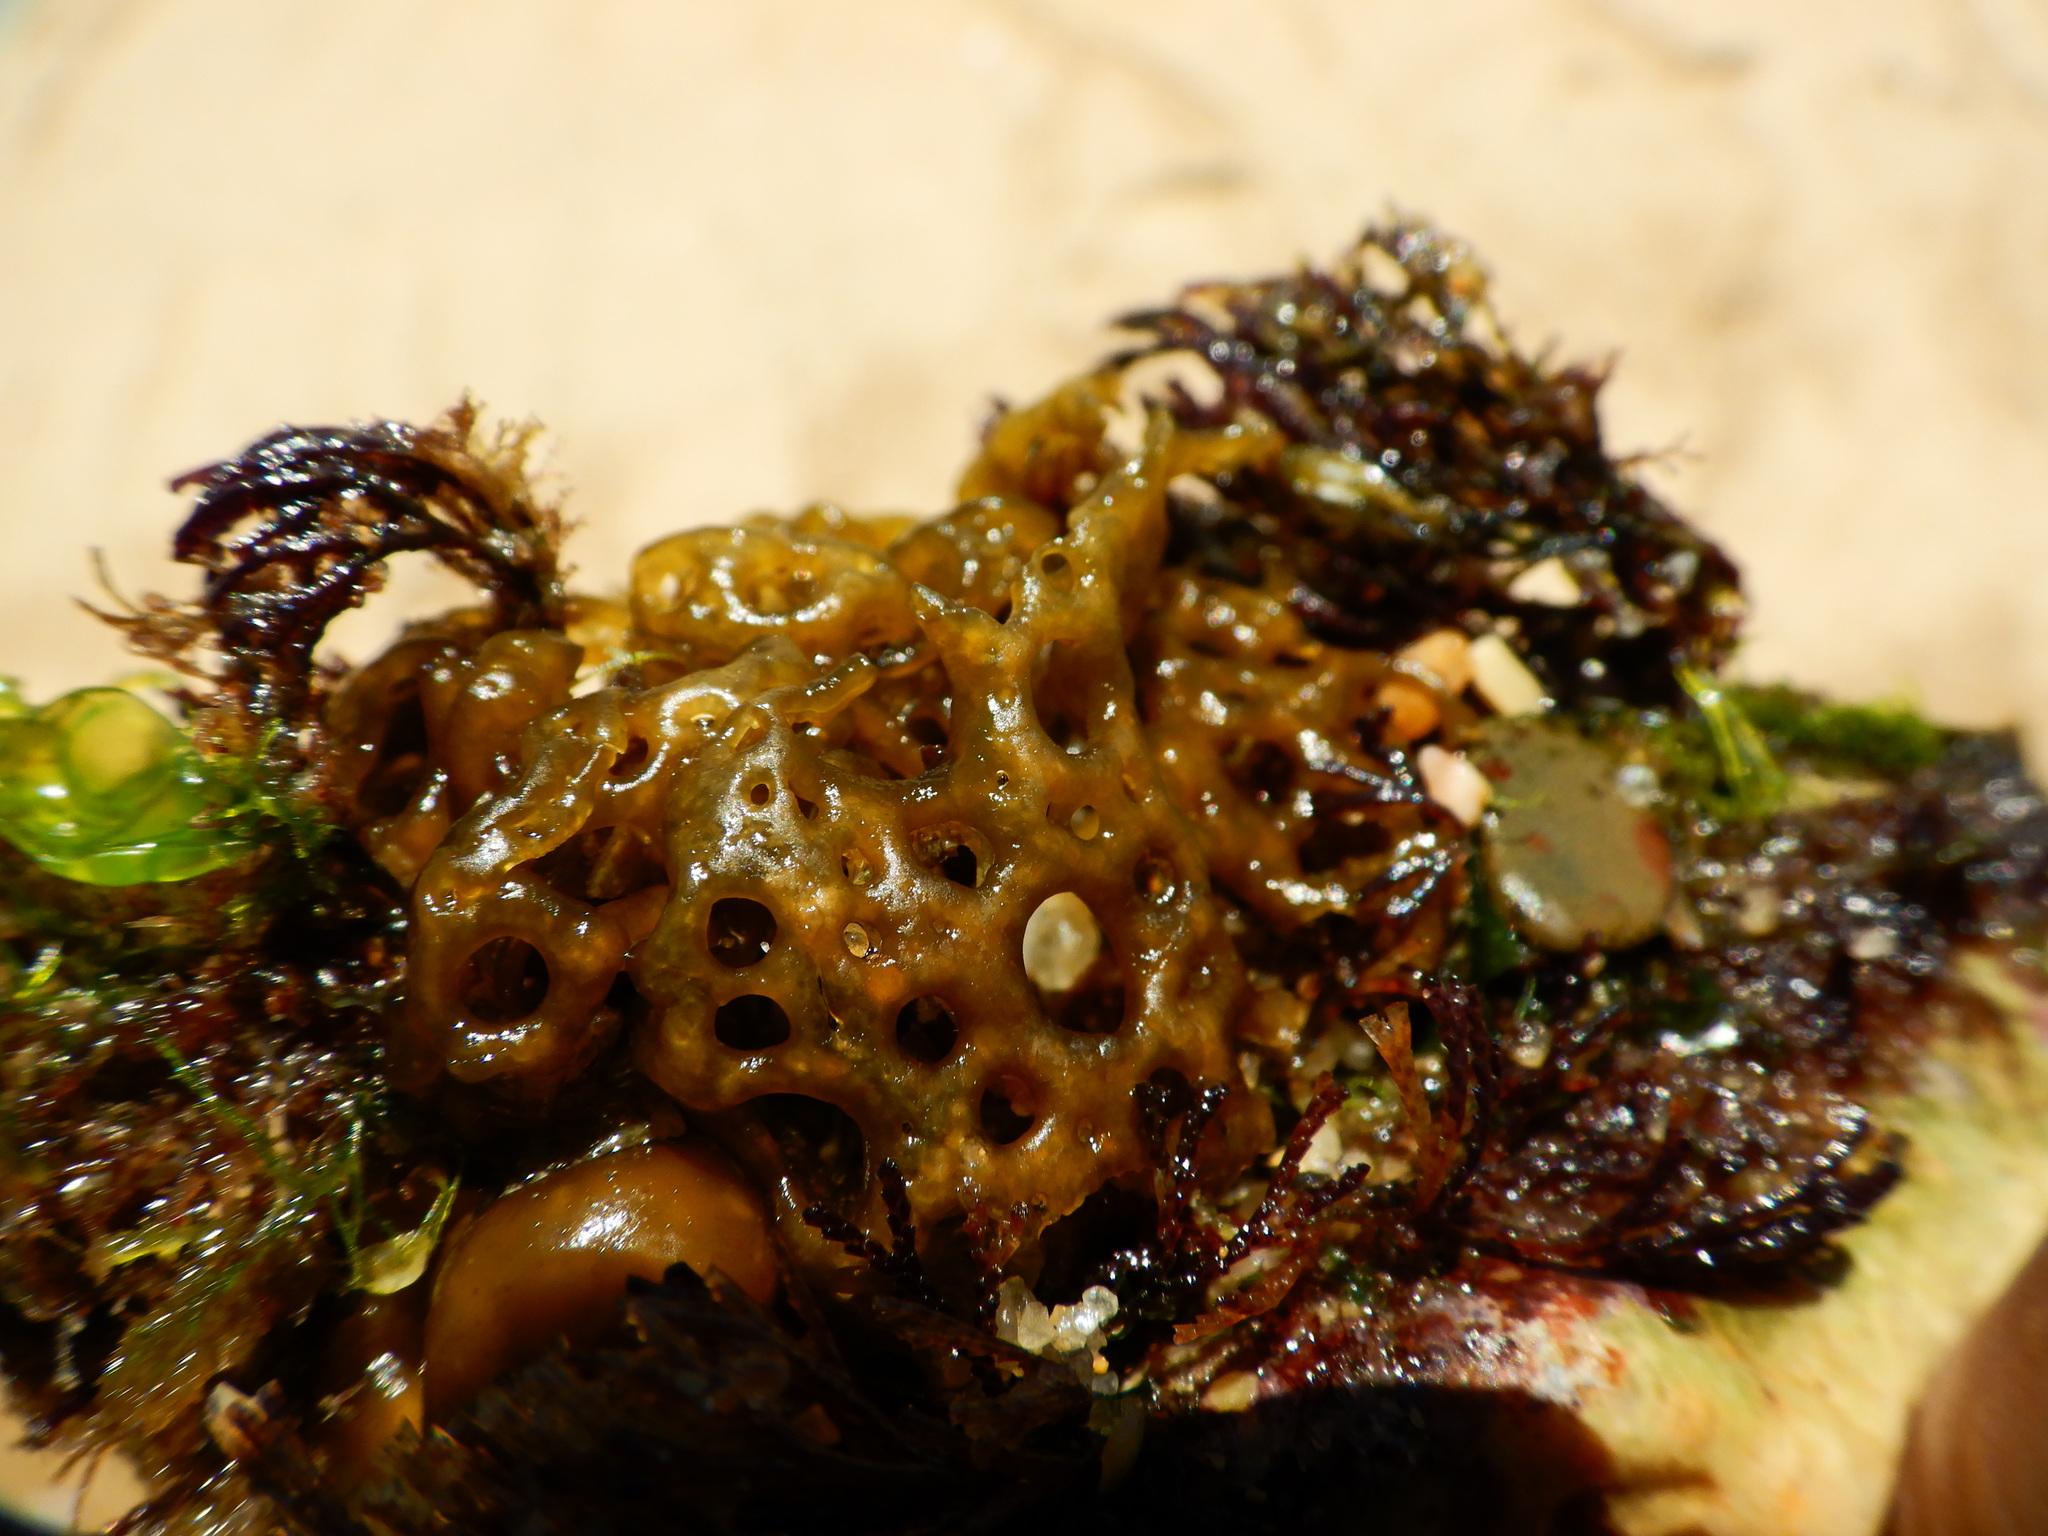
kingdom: Chromista
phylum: Ochrophyta
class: Phaeophyceae
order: Scytosiphonales
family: Scytosiphonaceae
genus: Hydroclathrus
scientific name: Hydroclathrus clathratus
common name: Swiss cheese algae
